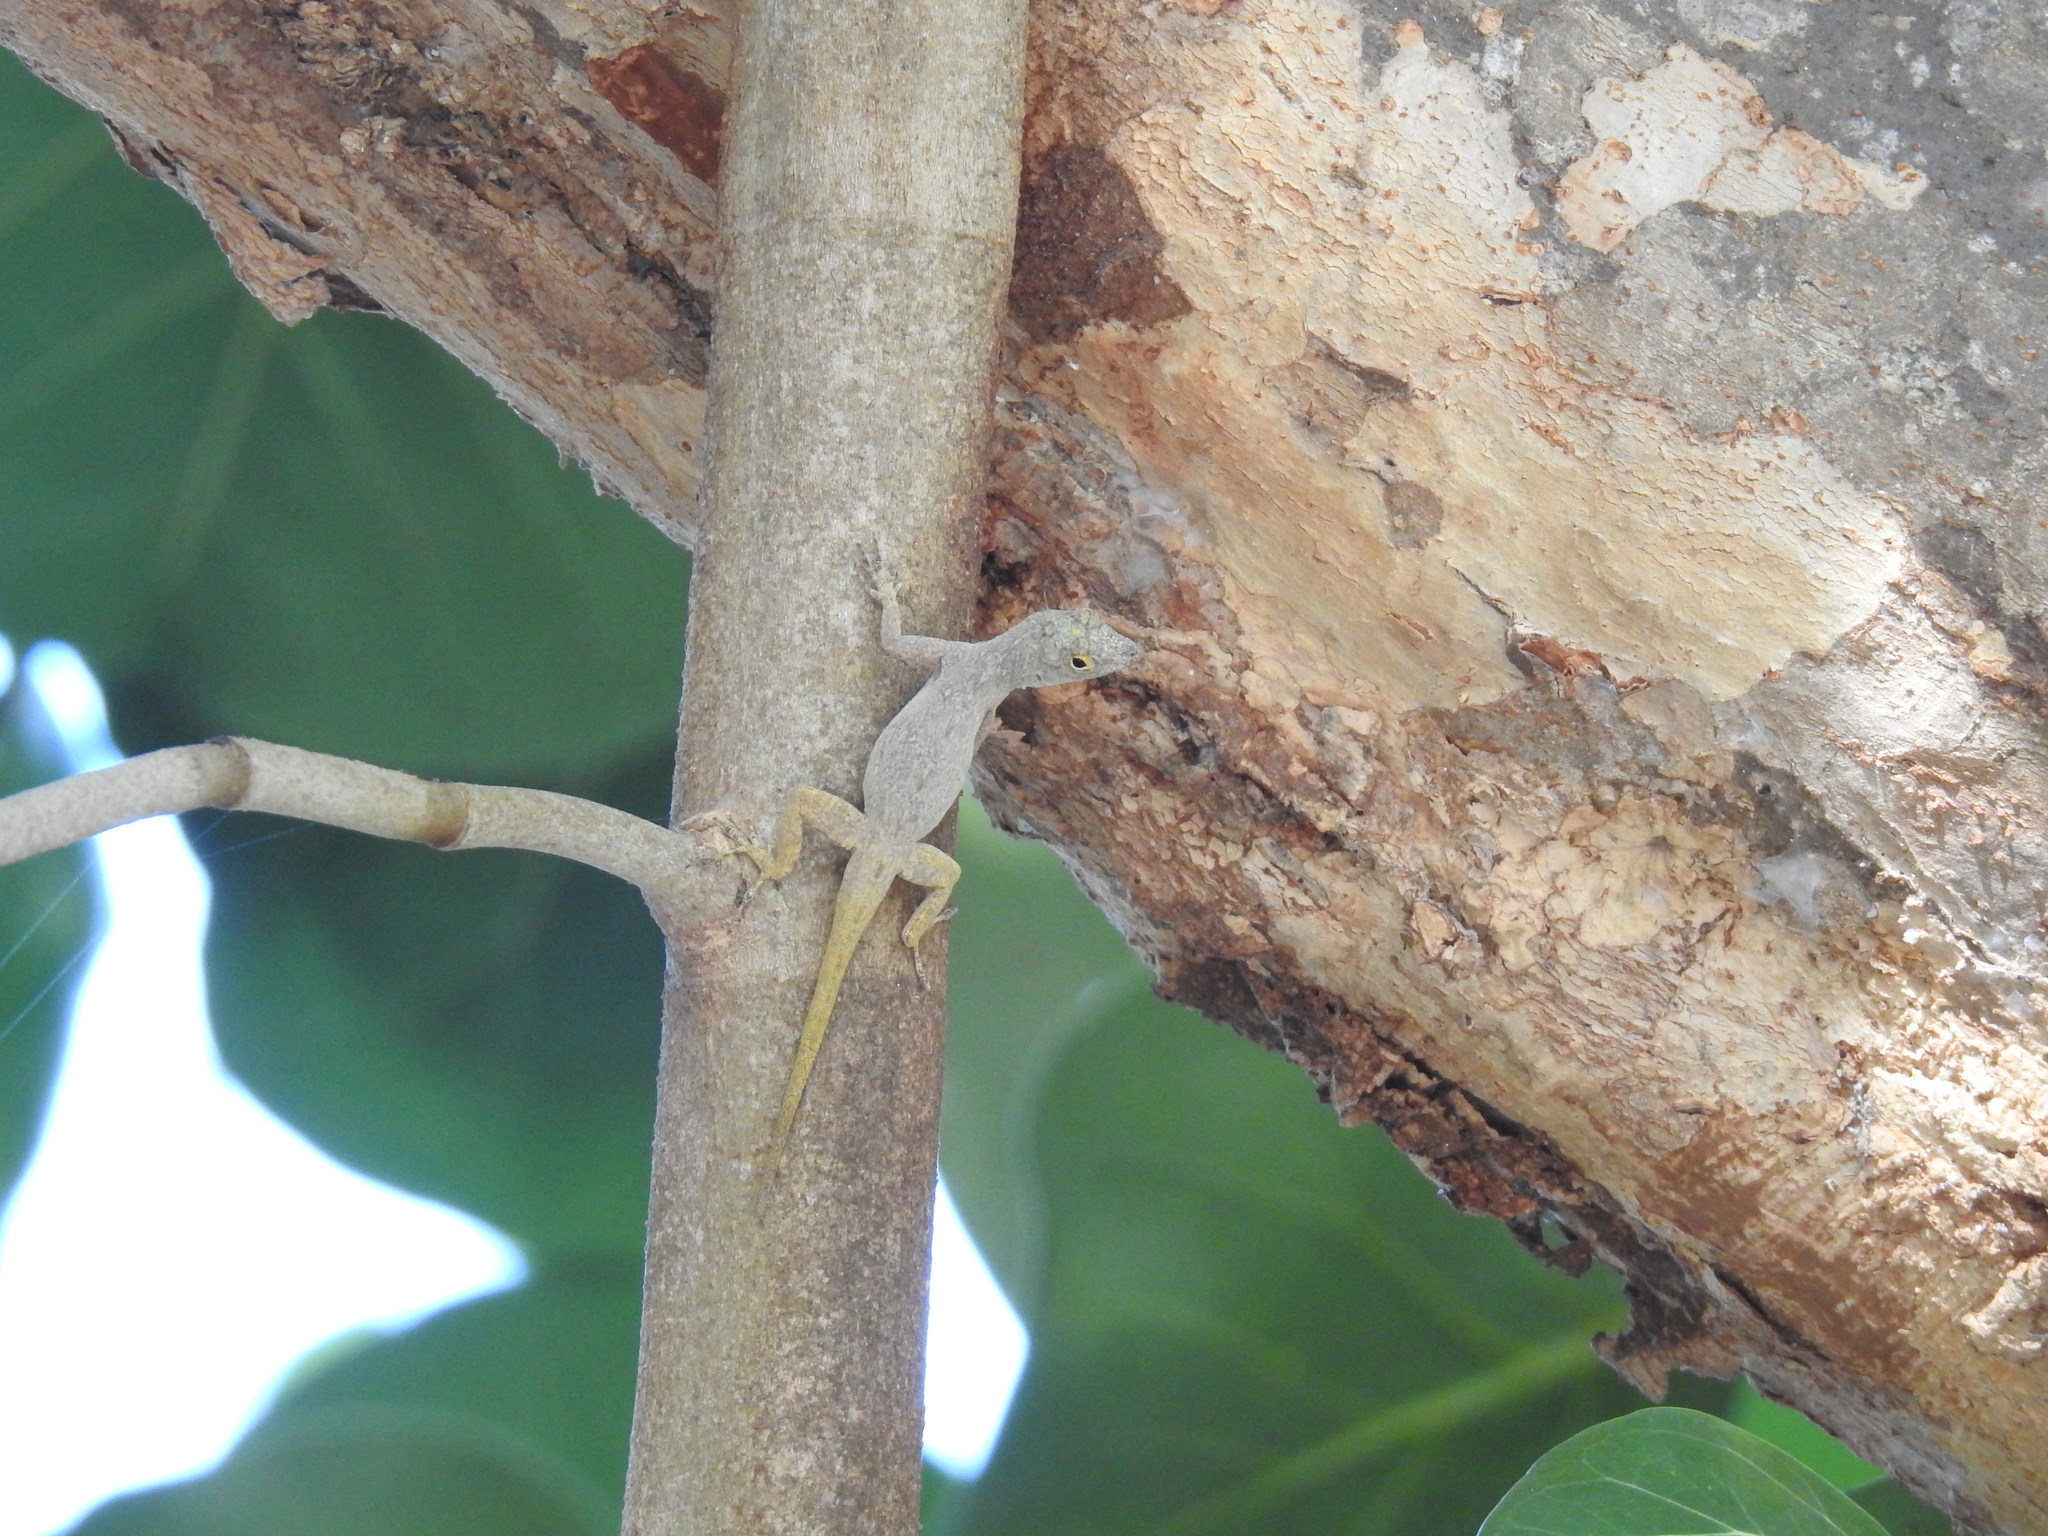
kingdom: Animalia
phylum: Chordata
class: Squamata
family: Dactyloidae
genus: Anolis
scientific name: Anolis distichus
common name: Bark anole
